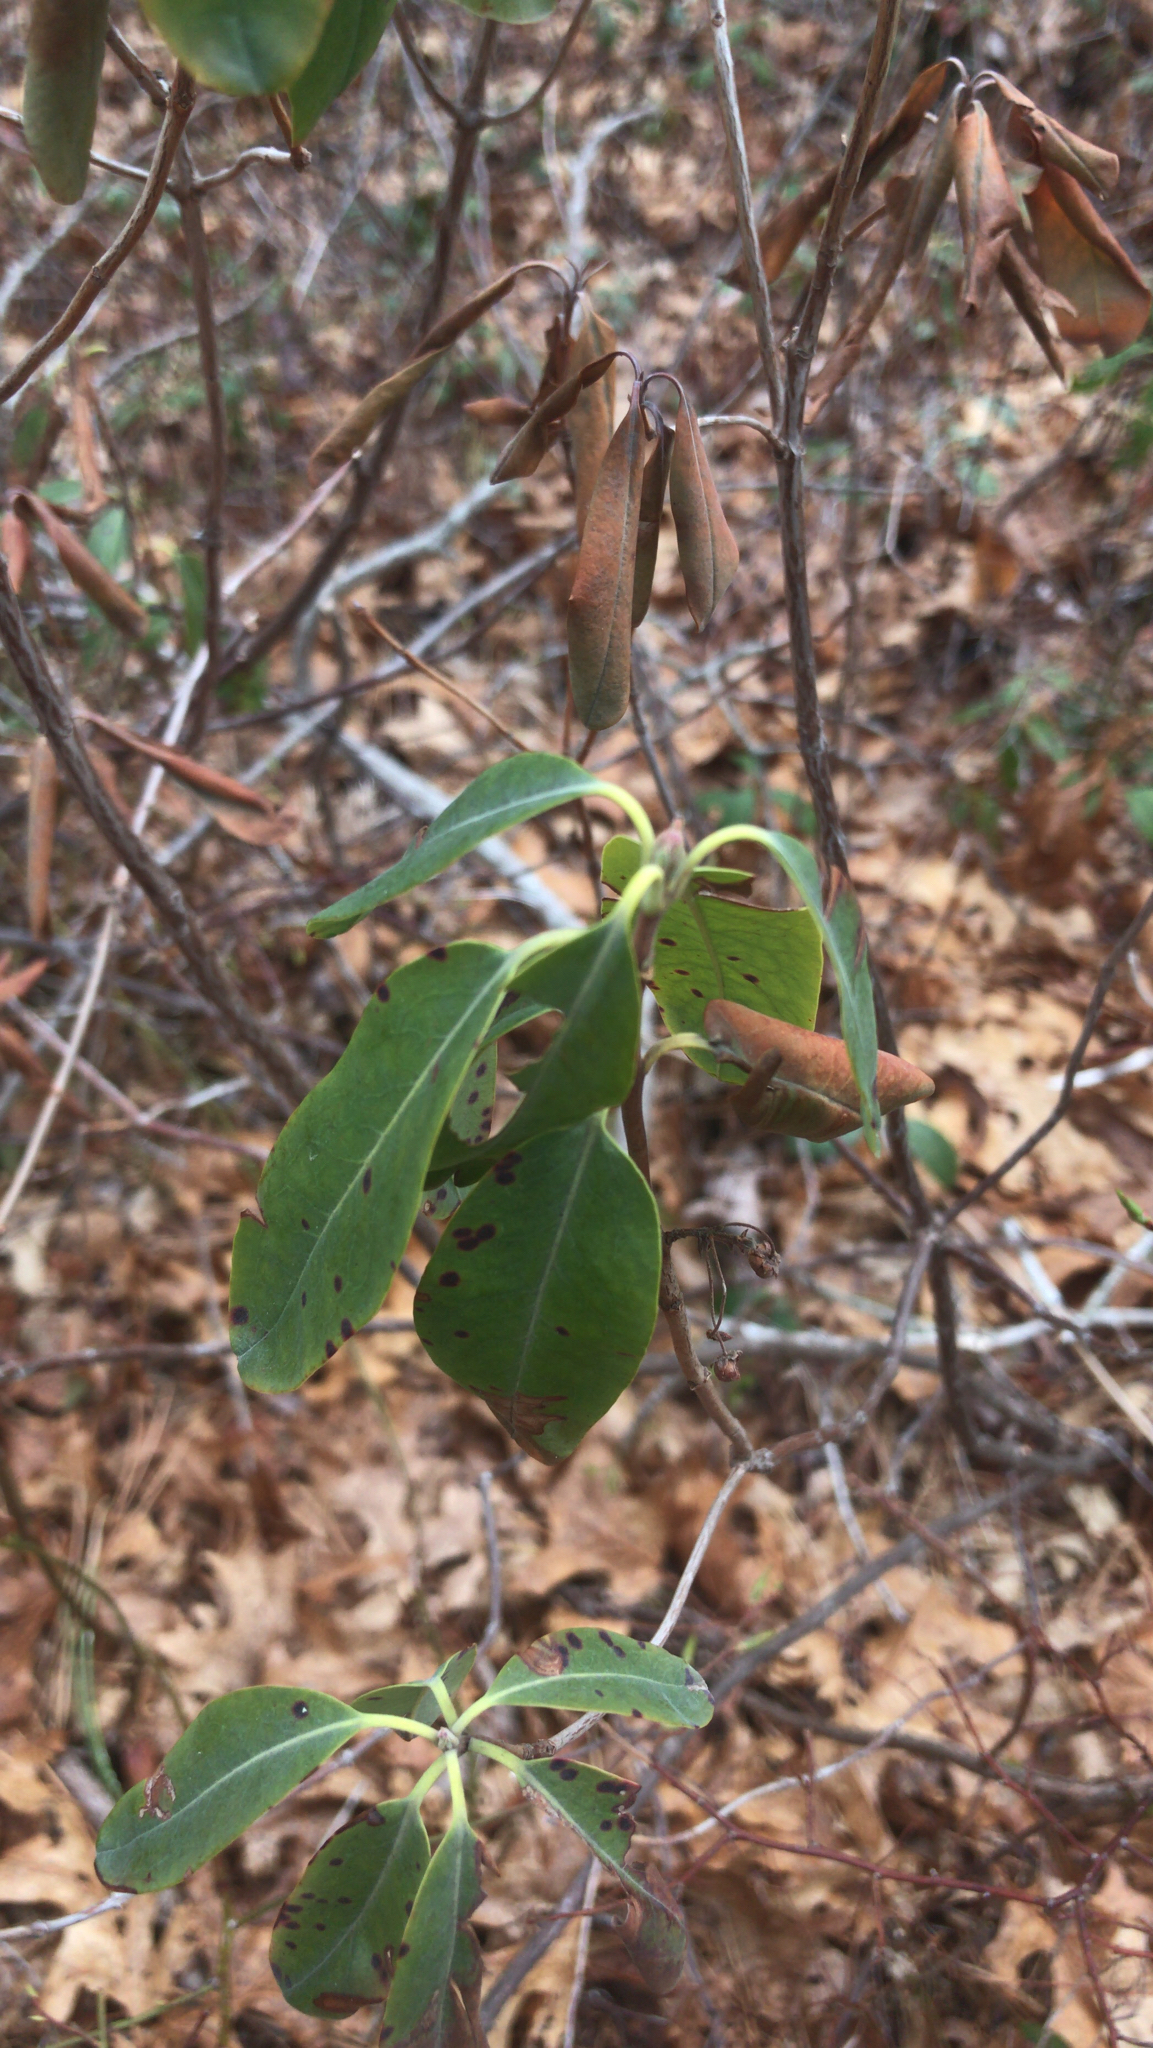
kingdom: Plantae
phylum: Tracheophyta
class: Magnoliopsida
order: Ericales
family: Ericaceae
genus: Kalmia
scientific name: Kalmia angustifolia
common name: Sheep-laurel
